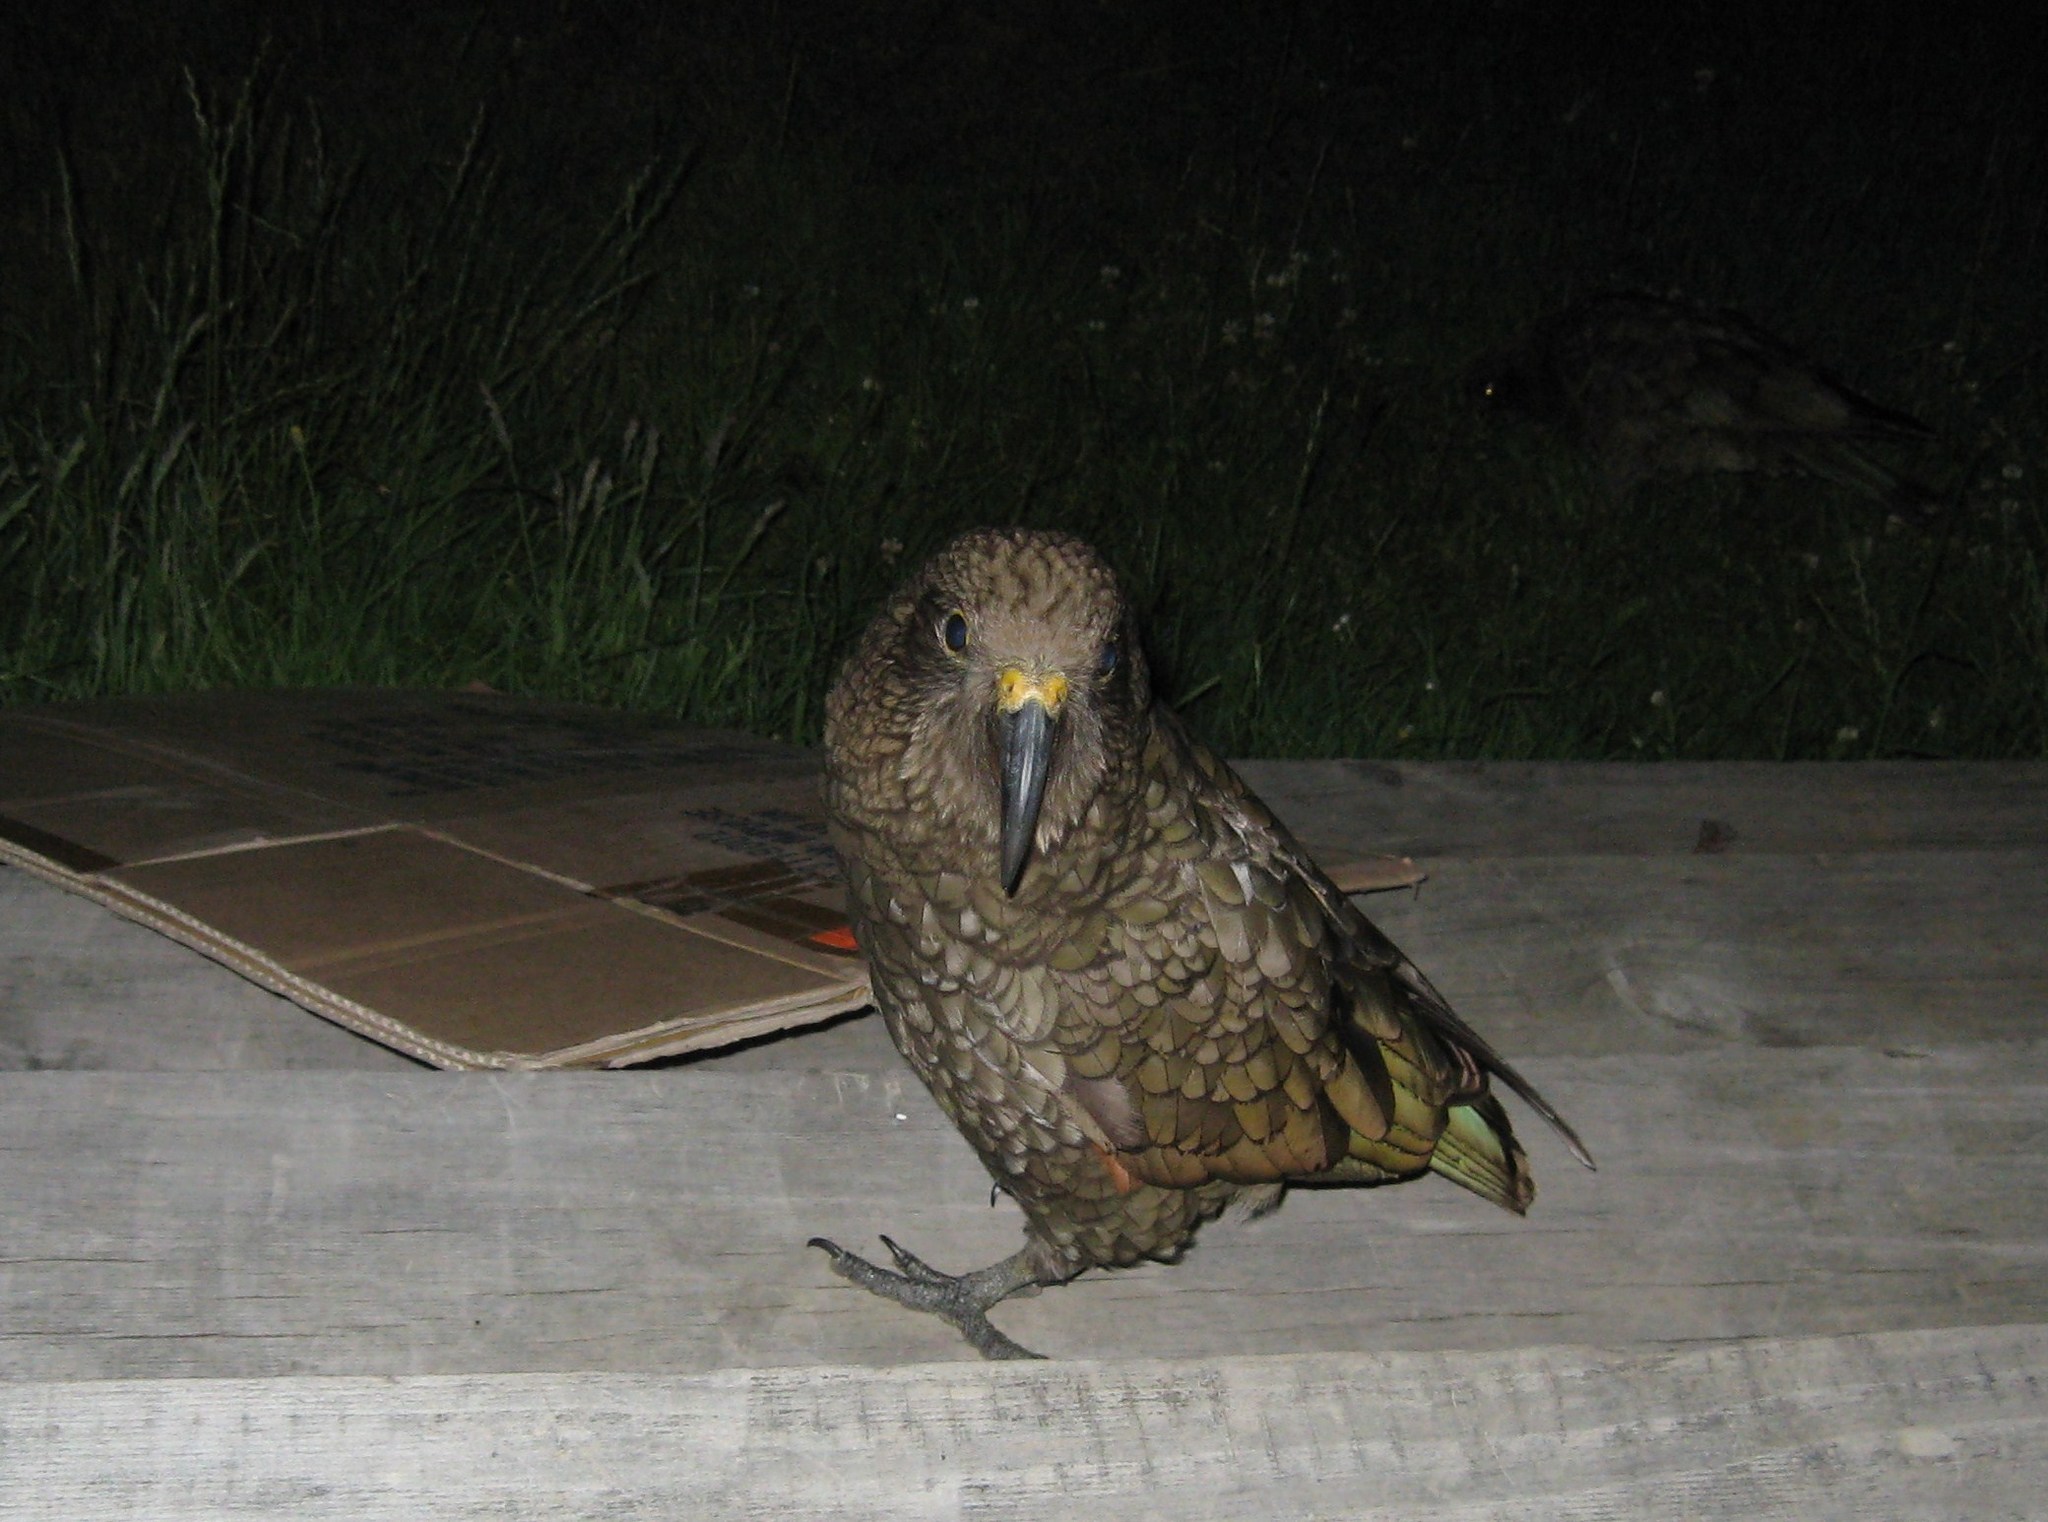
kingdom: Animalia
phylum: Chordata
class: Aves
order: Psittaciformes
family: Psittacidae
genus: Nestor
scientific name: Nestor notabilis
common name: Kea
